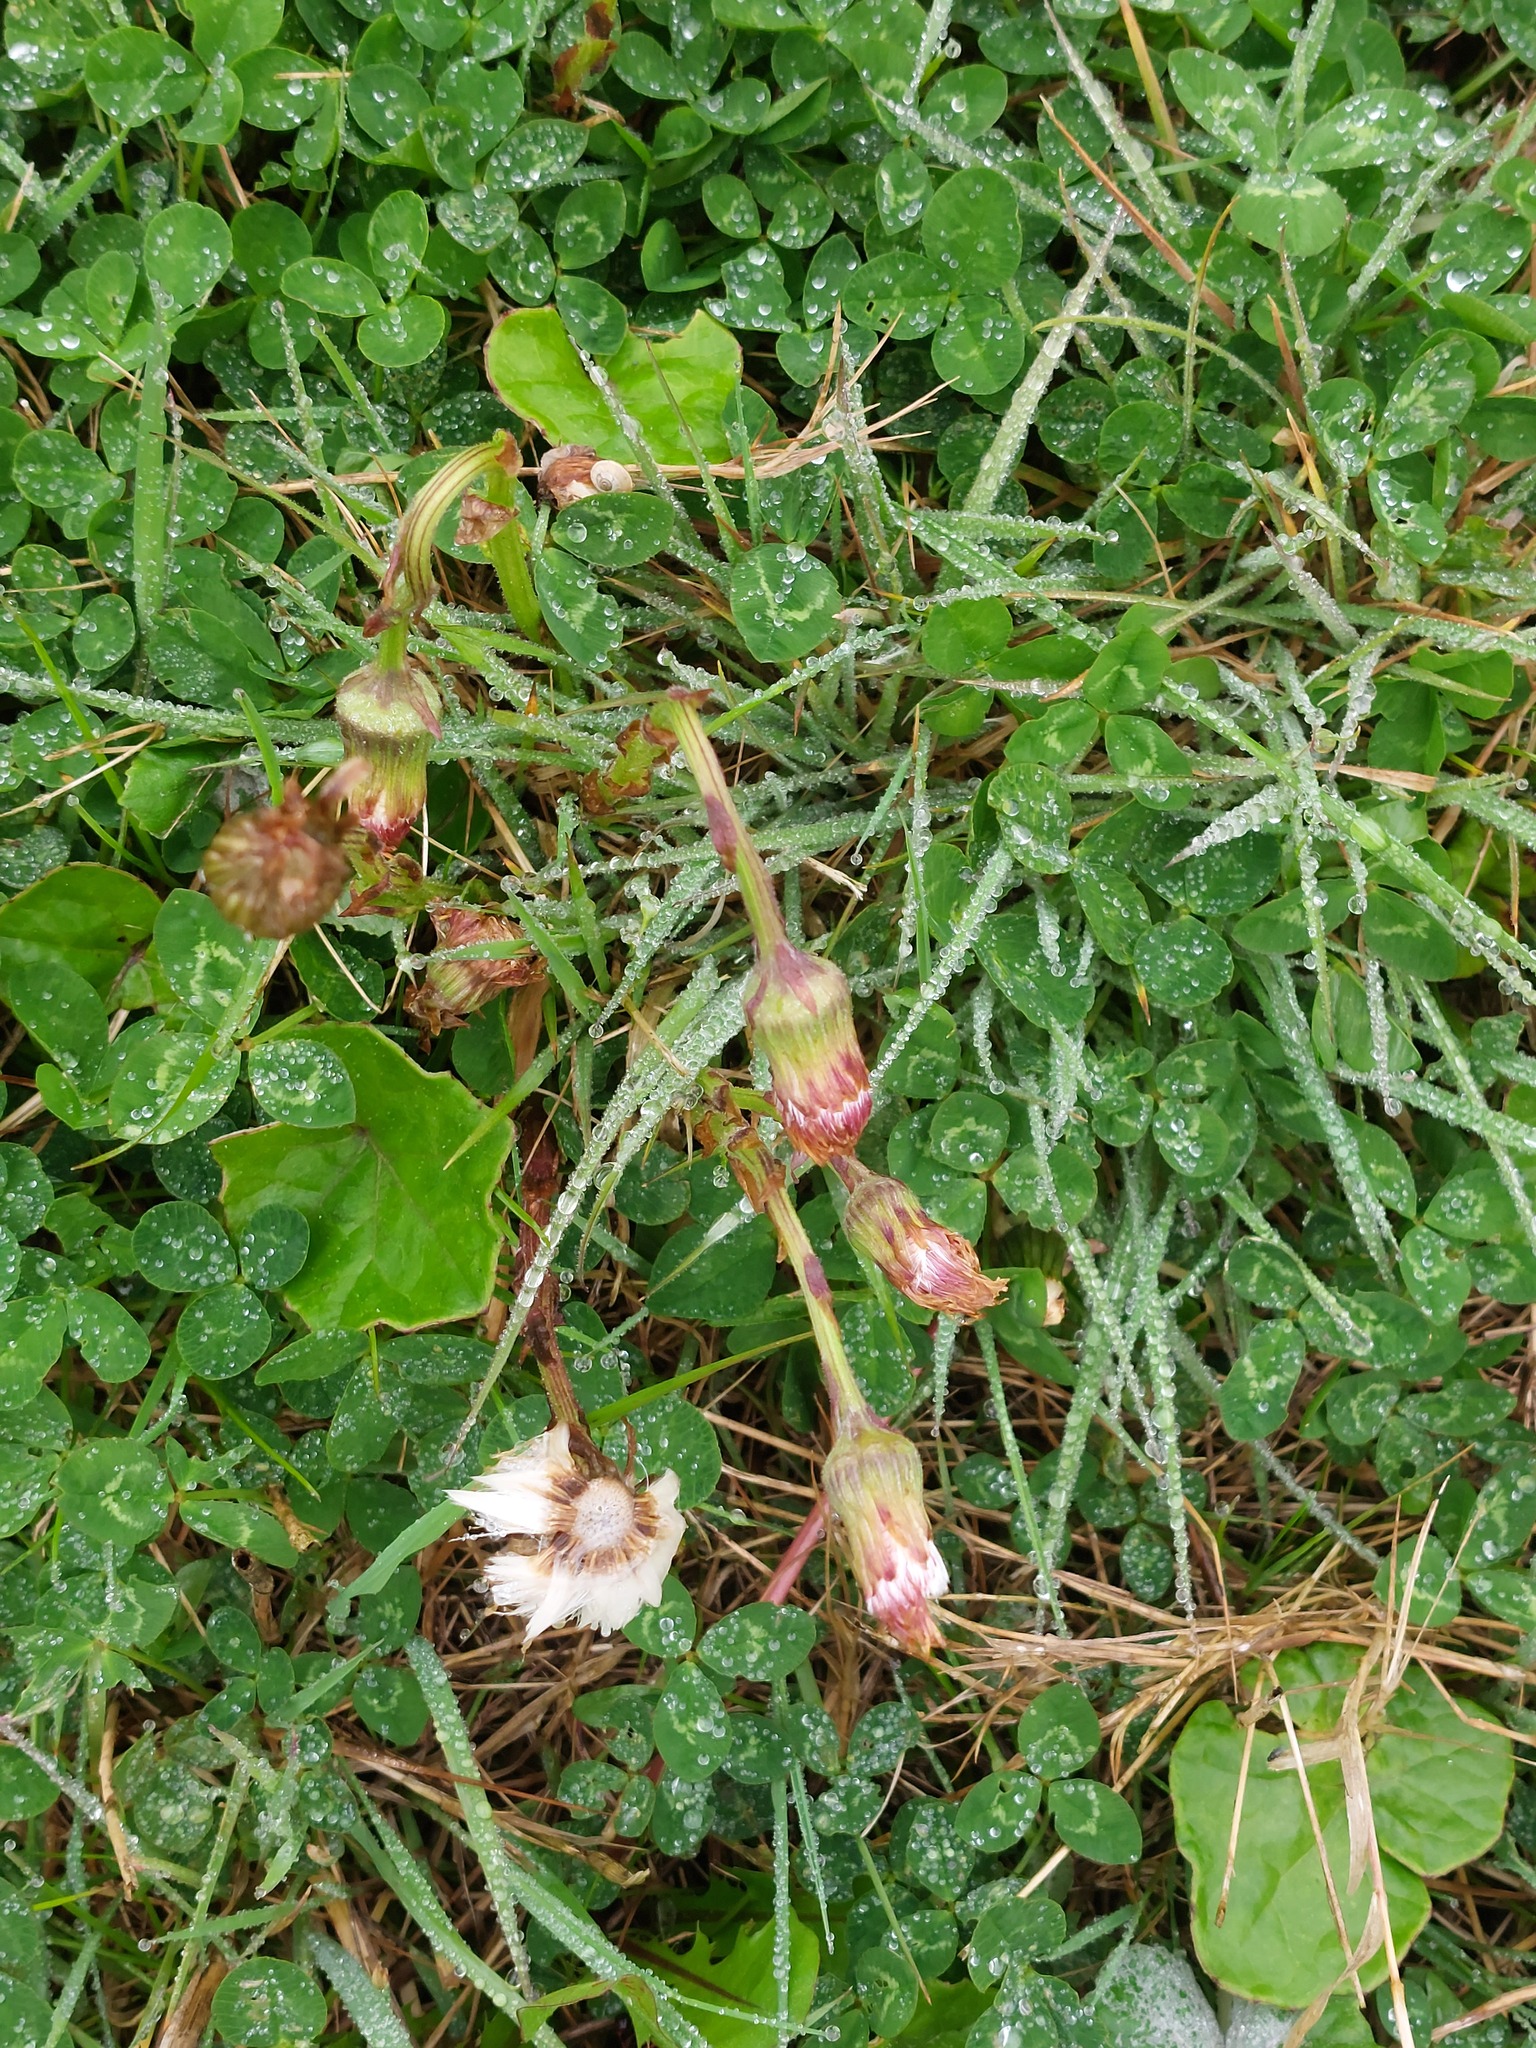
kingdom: Plantae
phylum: Tracheophyta
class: Magnoliopsida
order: Asterales
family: Asteraceae
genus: Tussilago
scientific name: Tussilago farfara
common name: Coltsfoot
